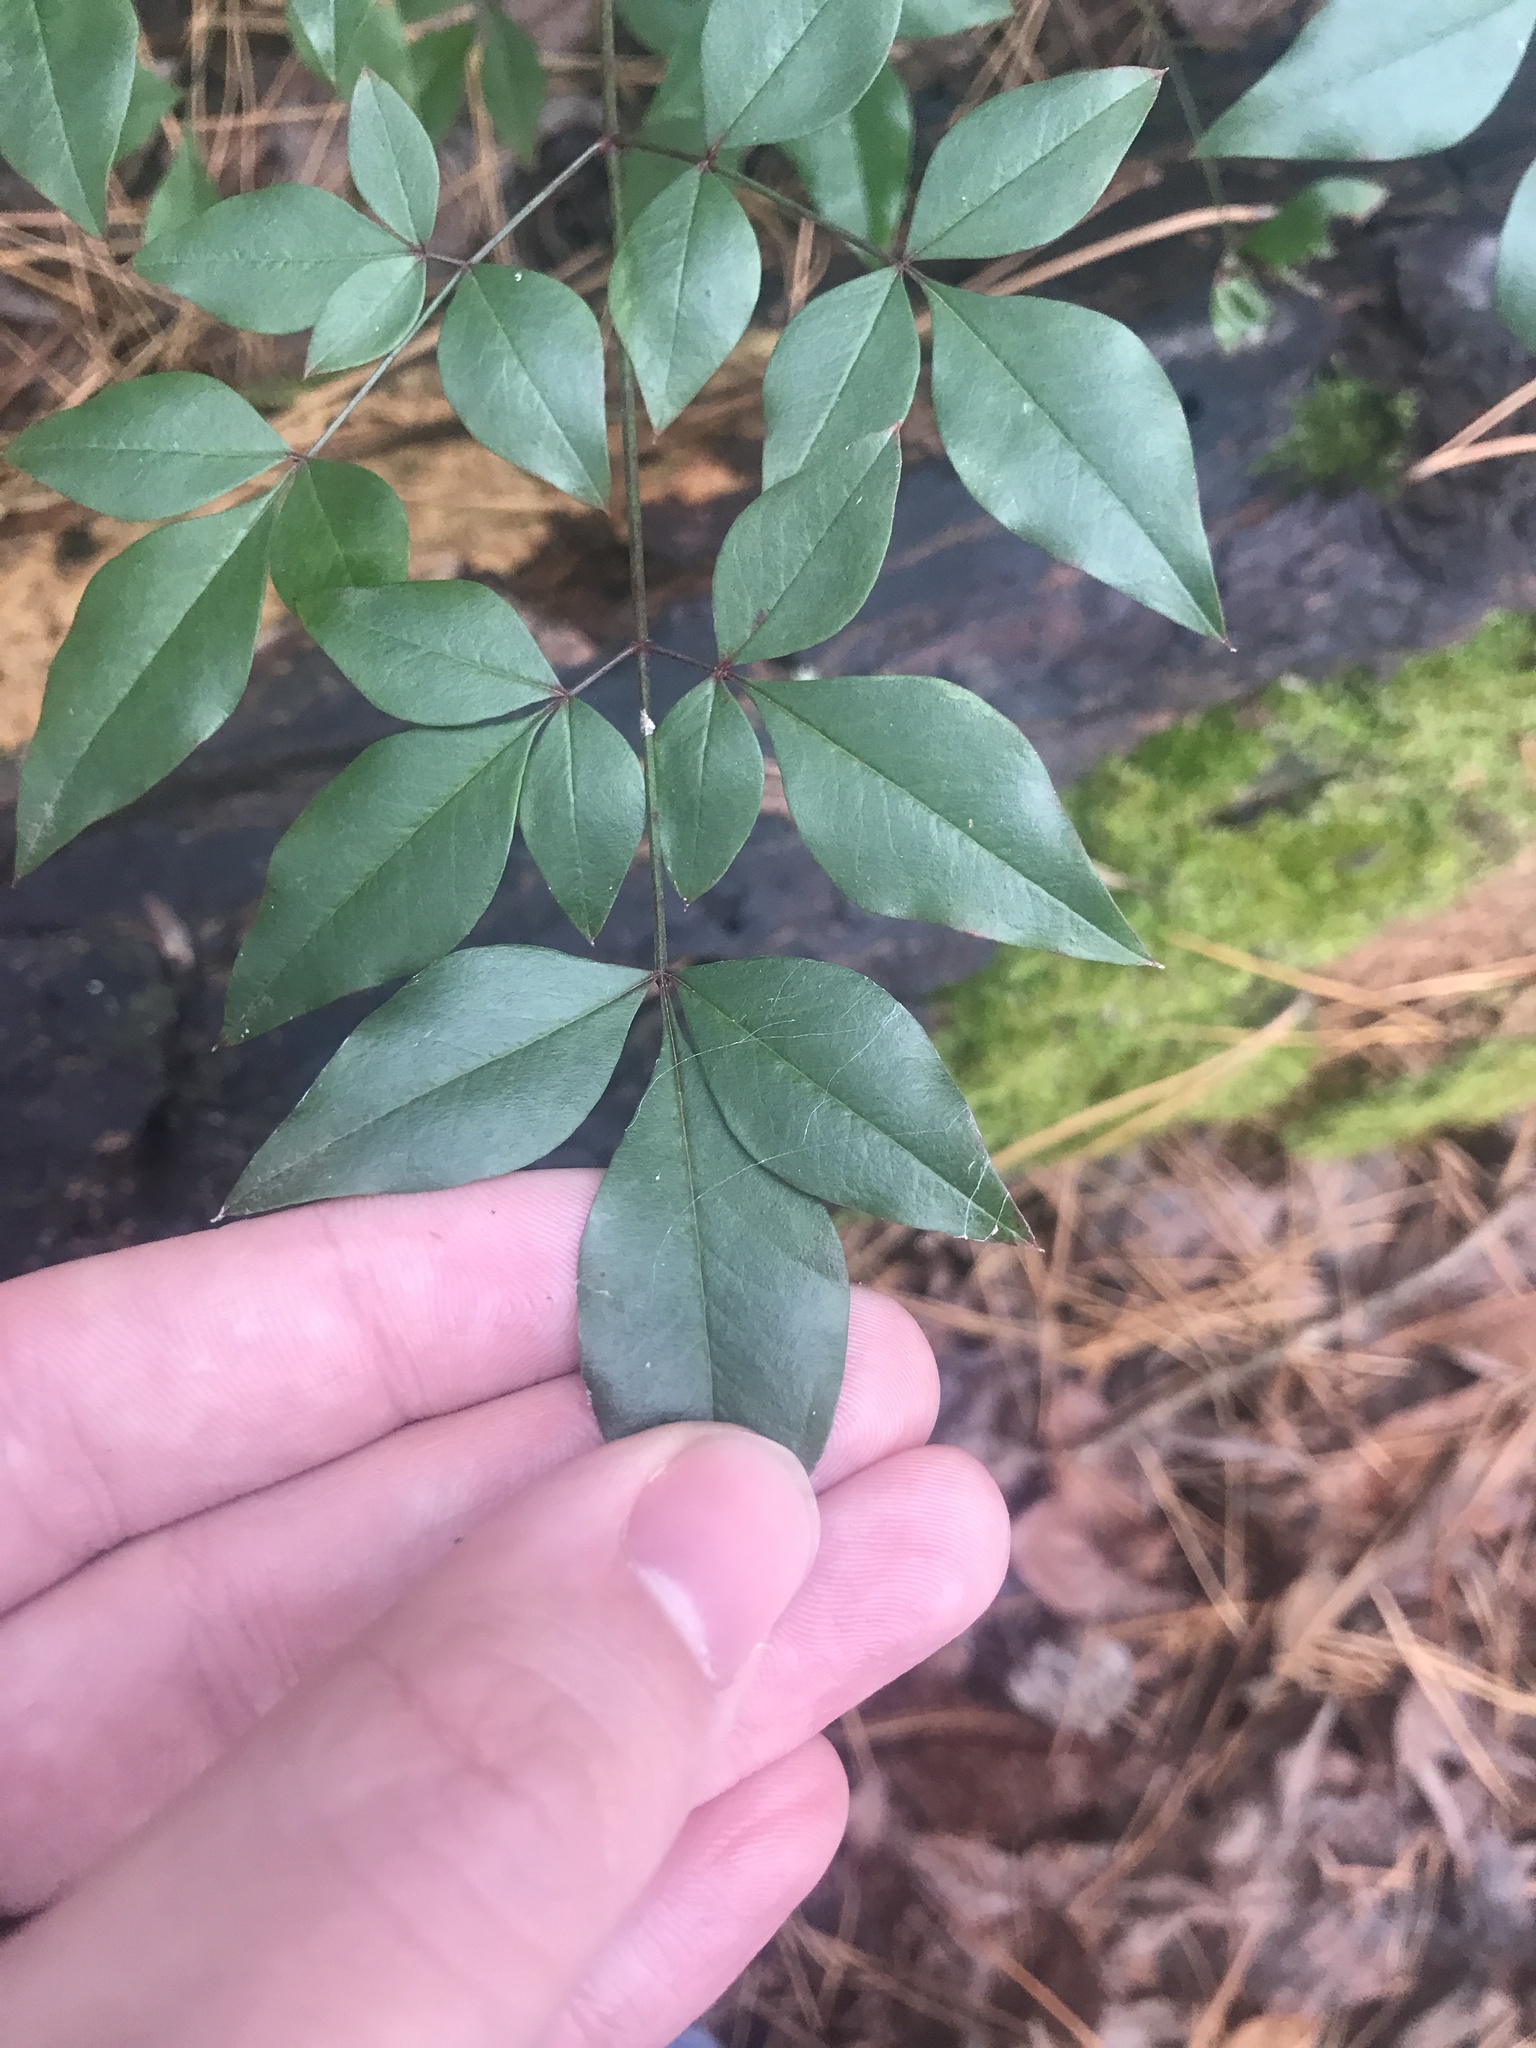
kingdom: Plantae
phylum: Tracheophyta
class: Magnoliopsida
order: Ranunculales
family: Berberidaceae
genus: Nandina
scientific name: Nandina domestica
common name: Sacred bamboo
